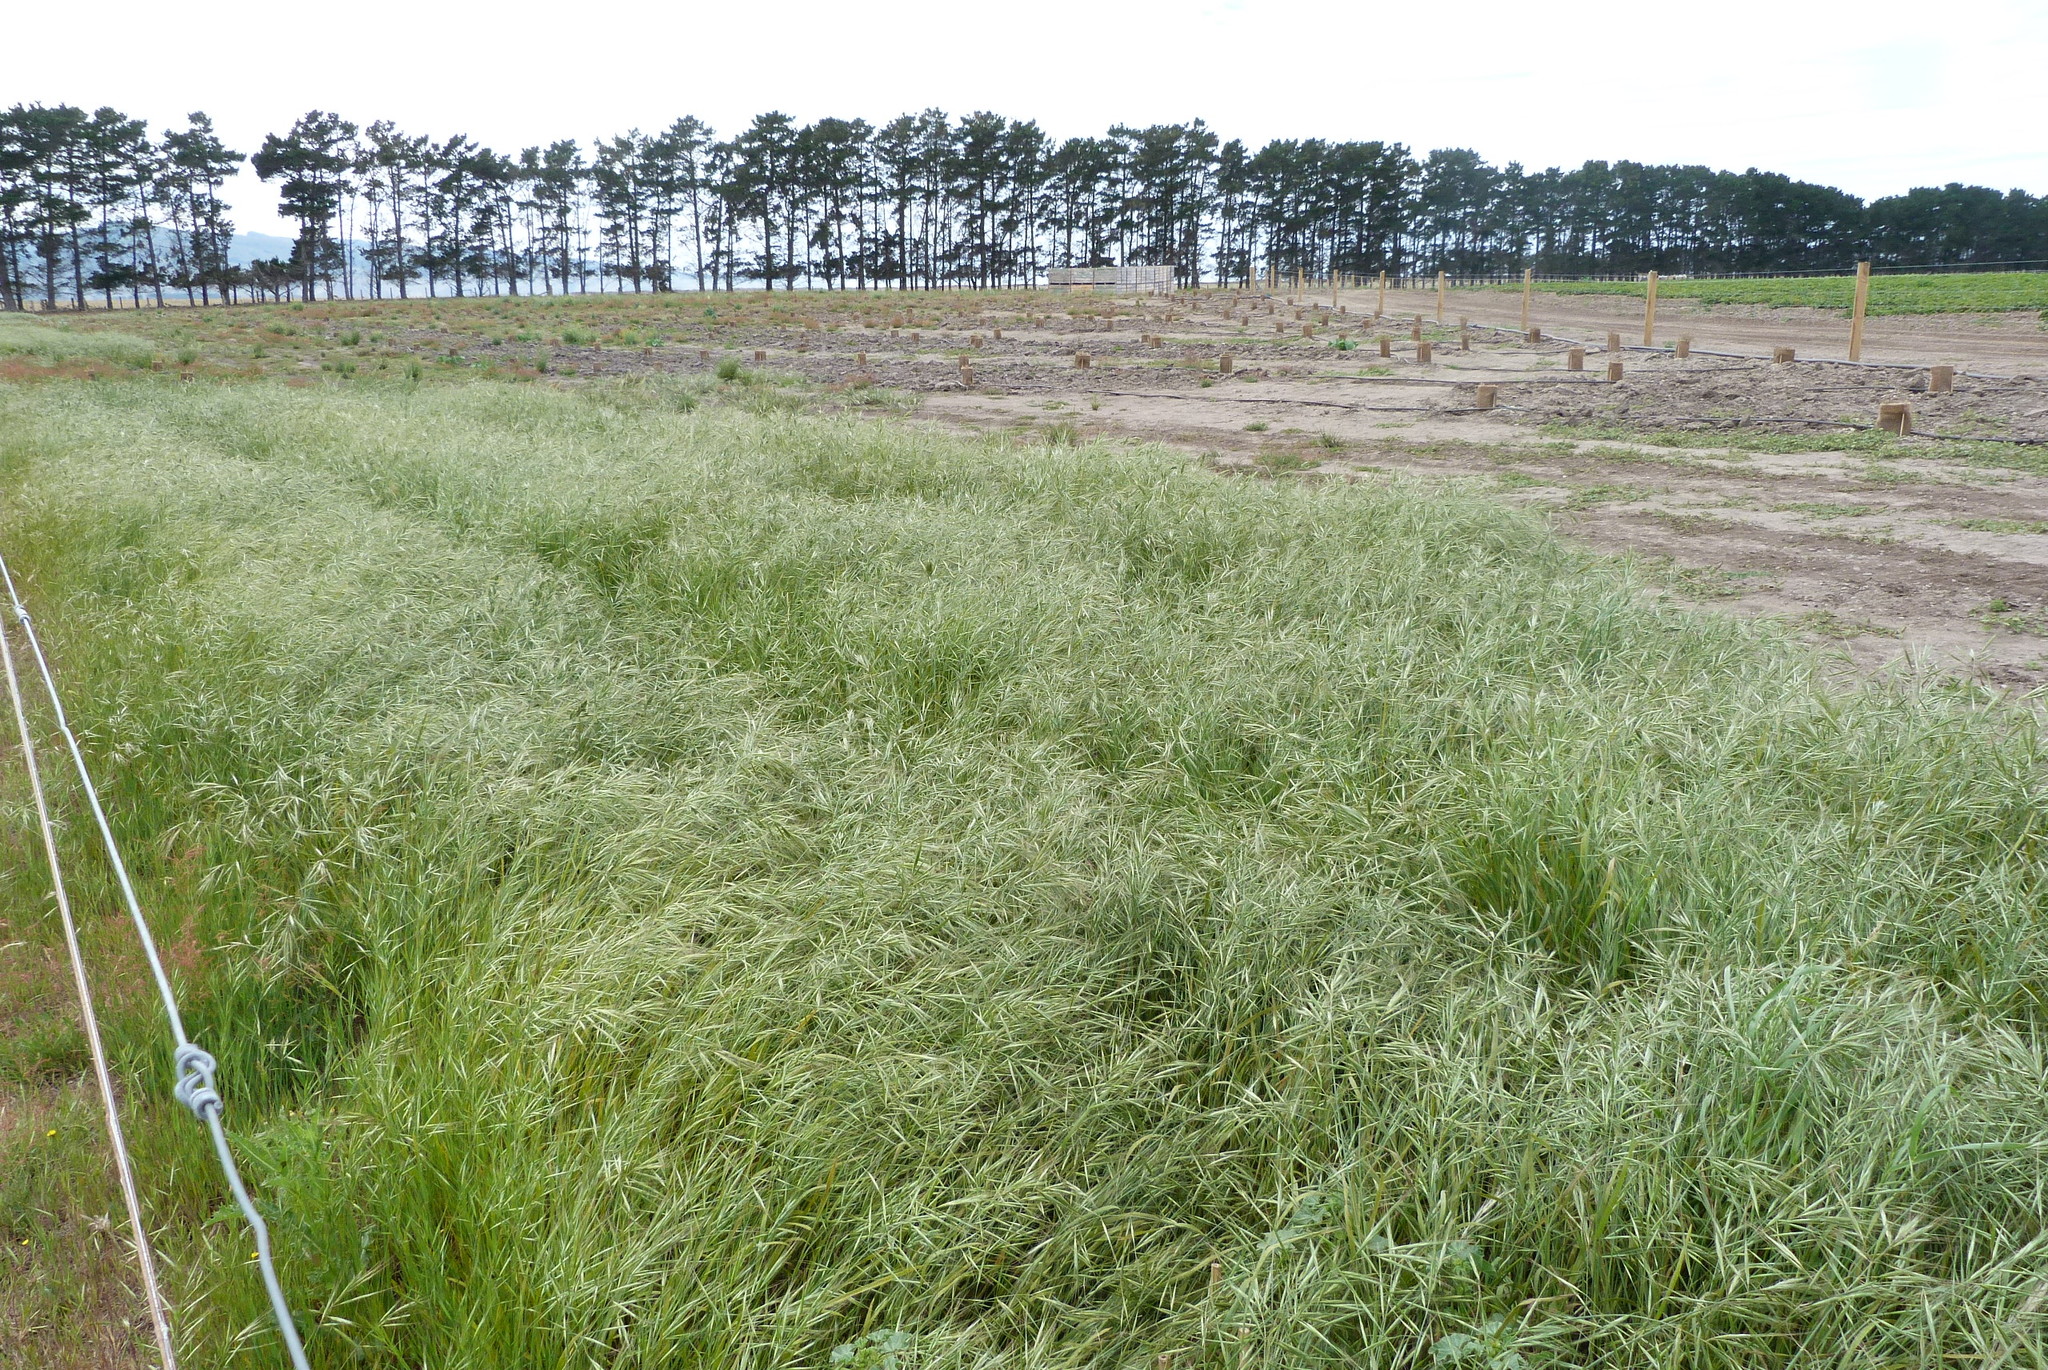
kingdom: Plantae
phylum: Tracheophyta
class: Liliopsida
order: Poales
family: Poaceae
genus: Bromus
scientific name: Bromus diandrus
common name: Ripgut brome
